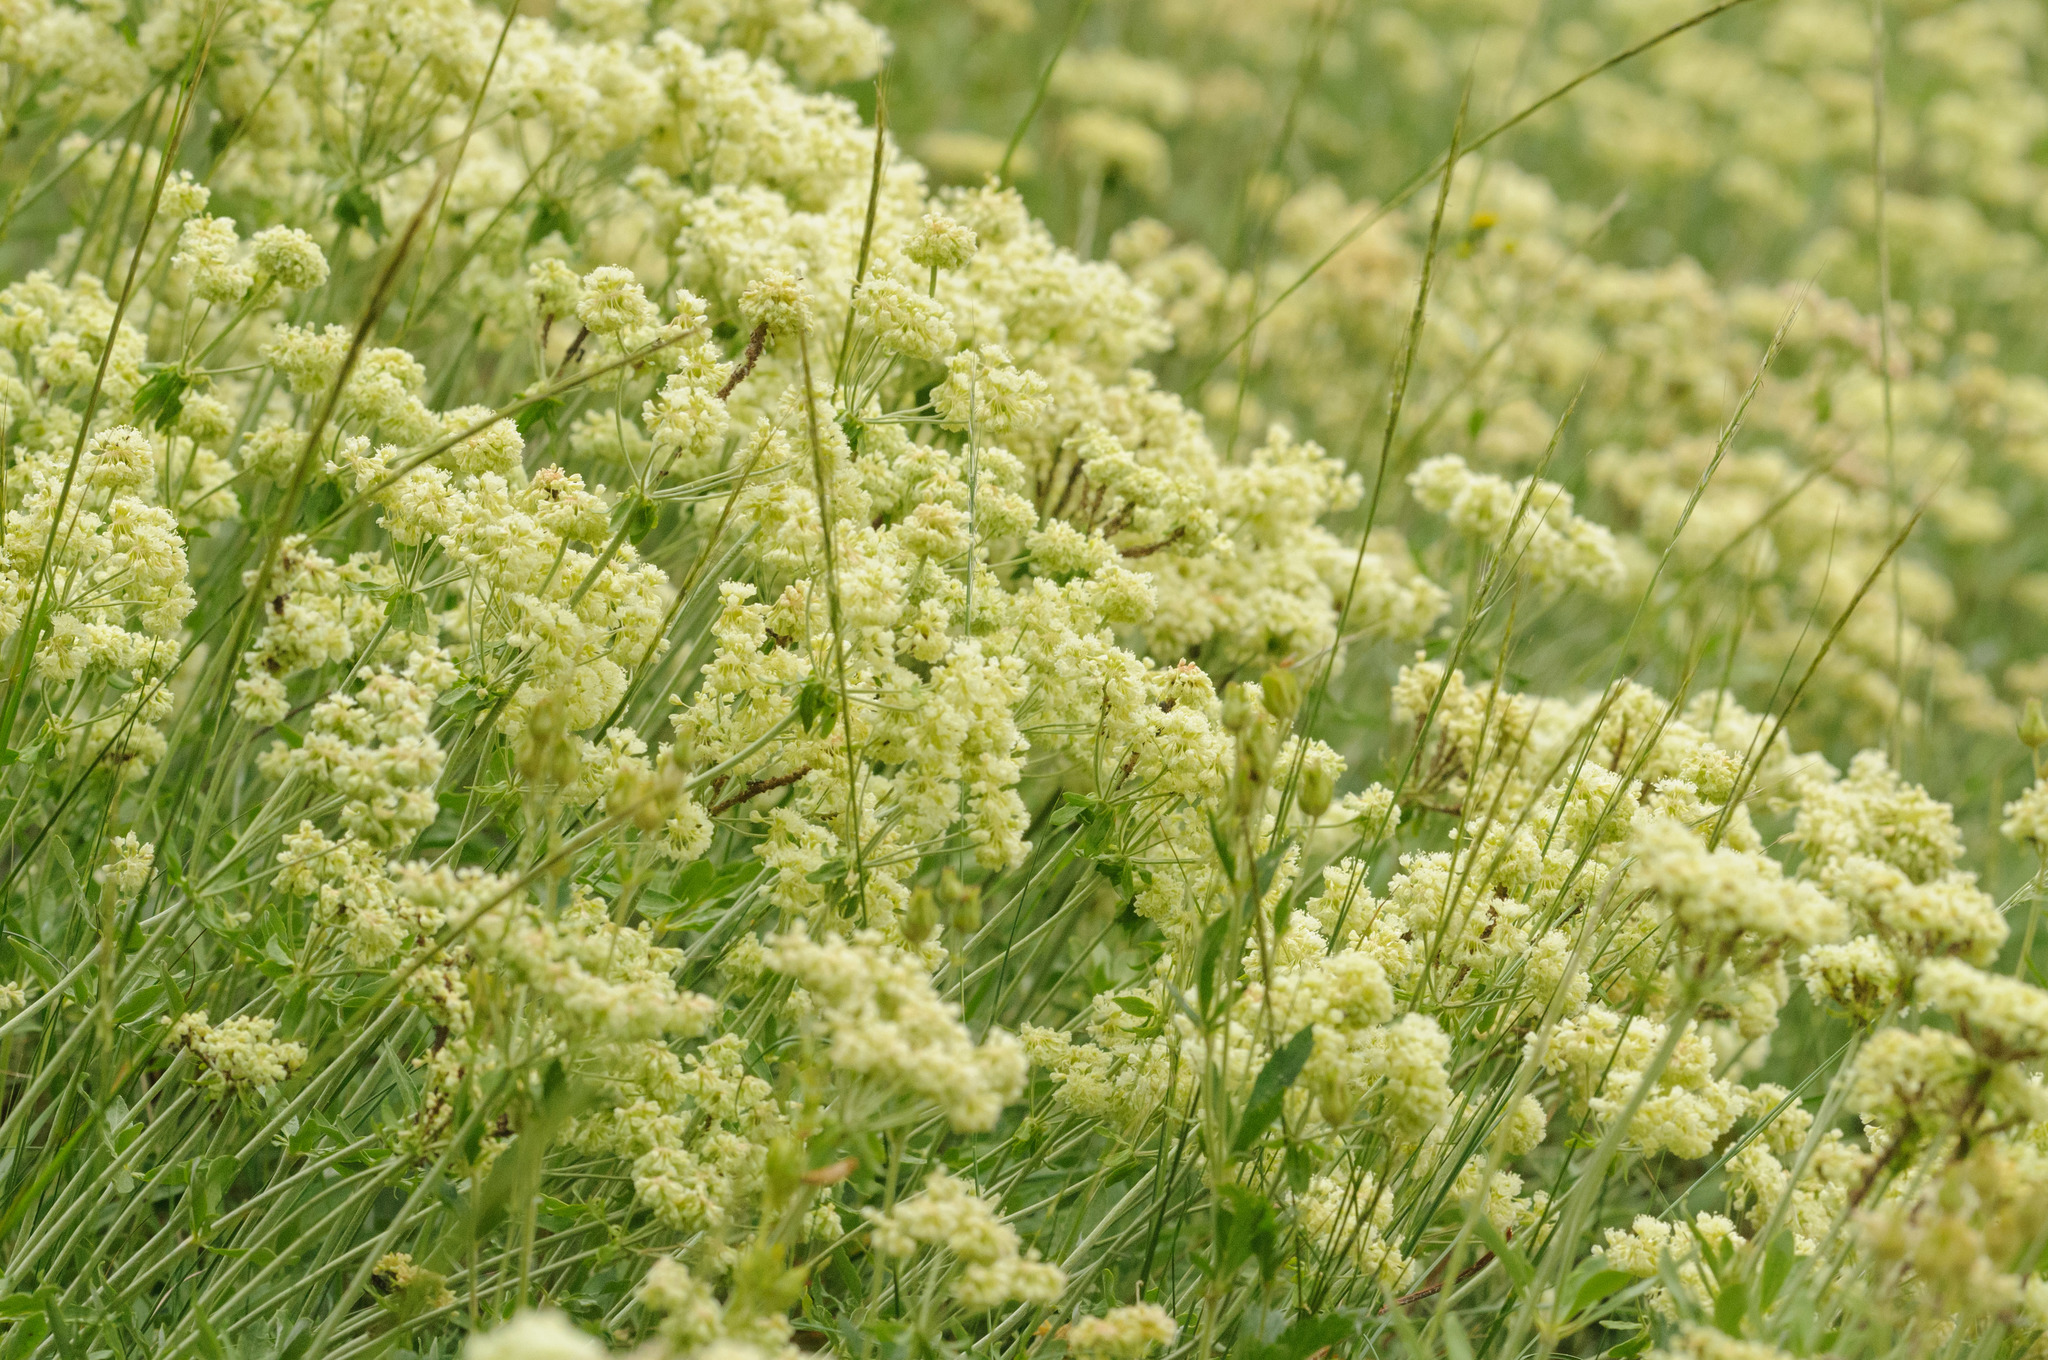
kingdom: Plantae
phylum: Tracheophyta
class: Magnoliopsida
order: Caryophyllales
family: Polygonaceae
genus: Eriogonum
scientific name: Eriogonum heracleoides
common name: Wyeth's buckwheat
